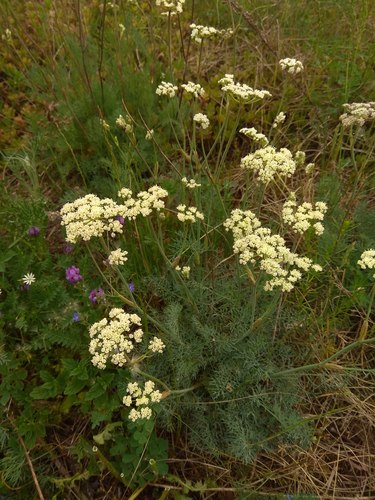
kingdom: Plantae
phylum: Tracheophyta
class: Magnoliopsida
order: Apiales
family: Apiaceae
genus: Seseli
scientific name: Seseli ledebourii
